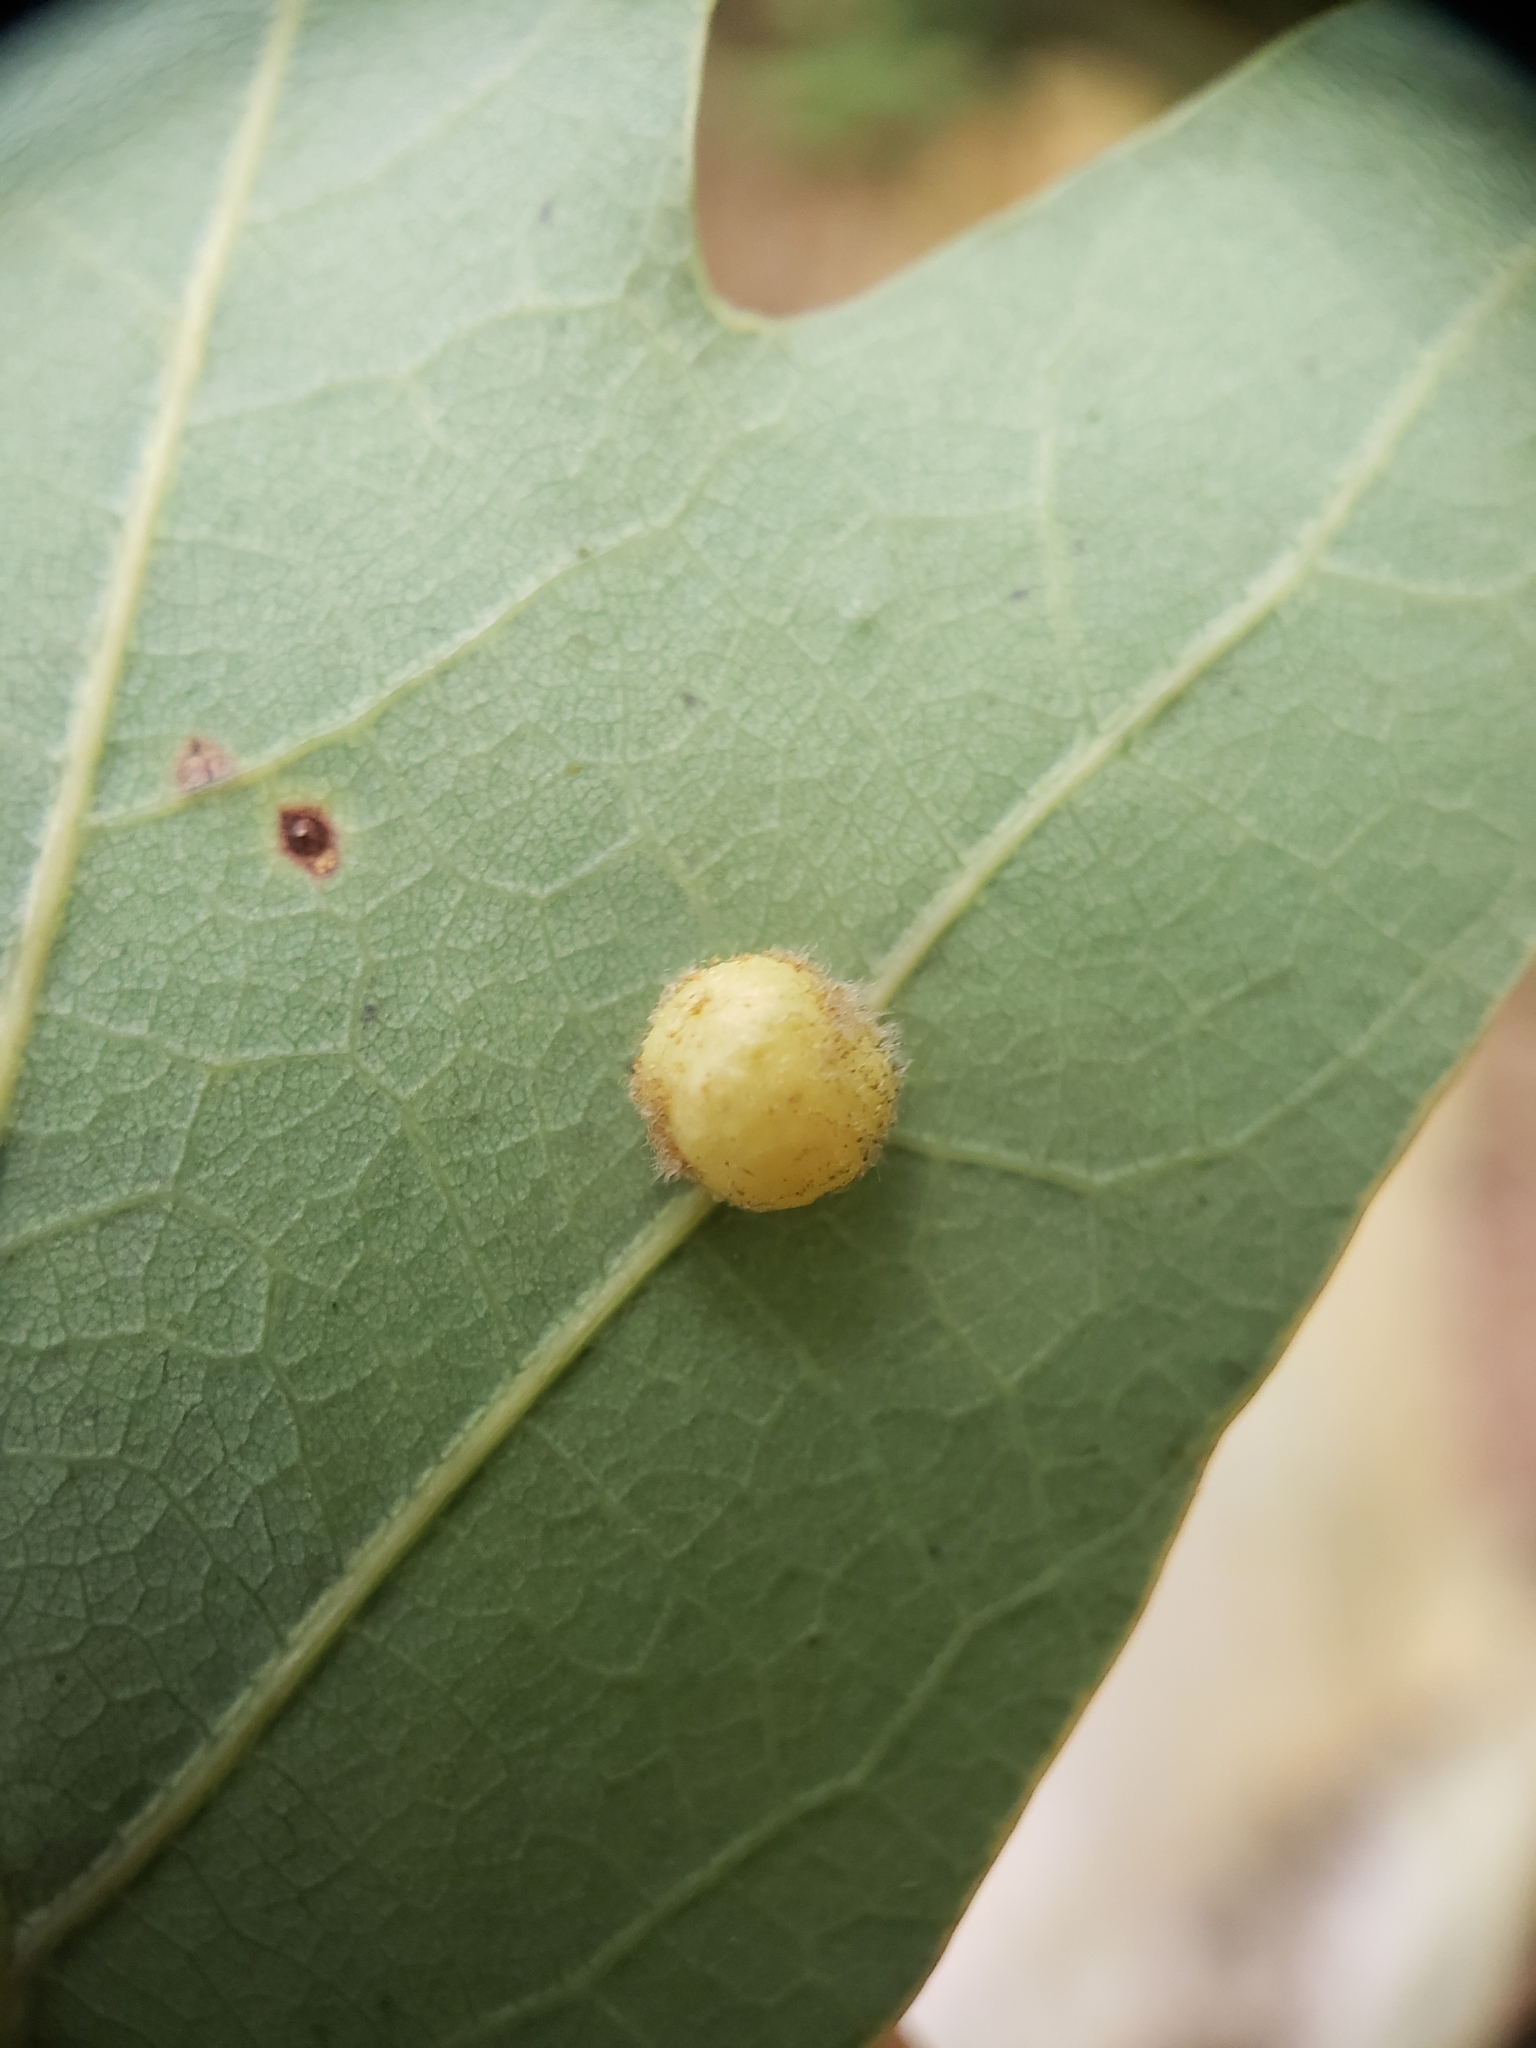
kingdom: Animalia
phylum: Arthropoda
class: Insecta
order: Hymenoptera
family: Cynipidae
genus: Philonix
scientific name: Philonix fulvicollis
